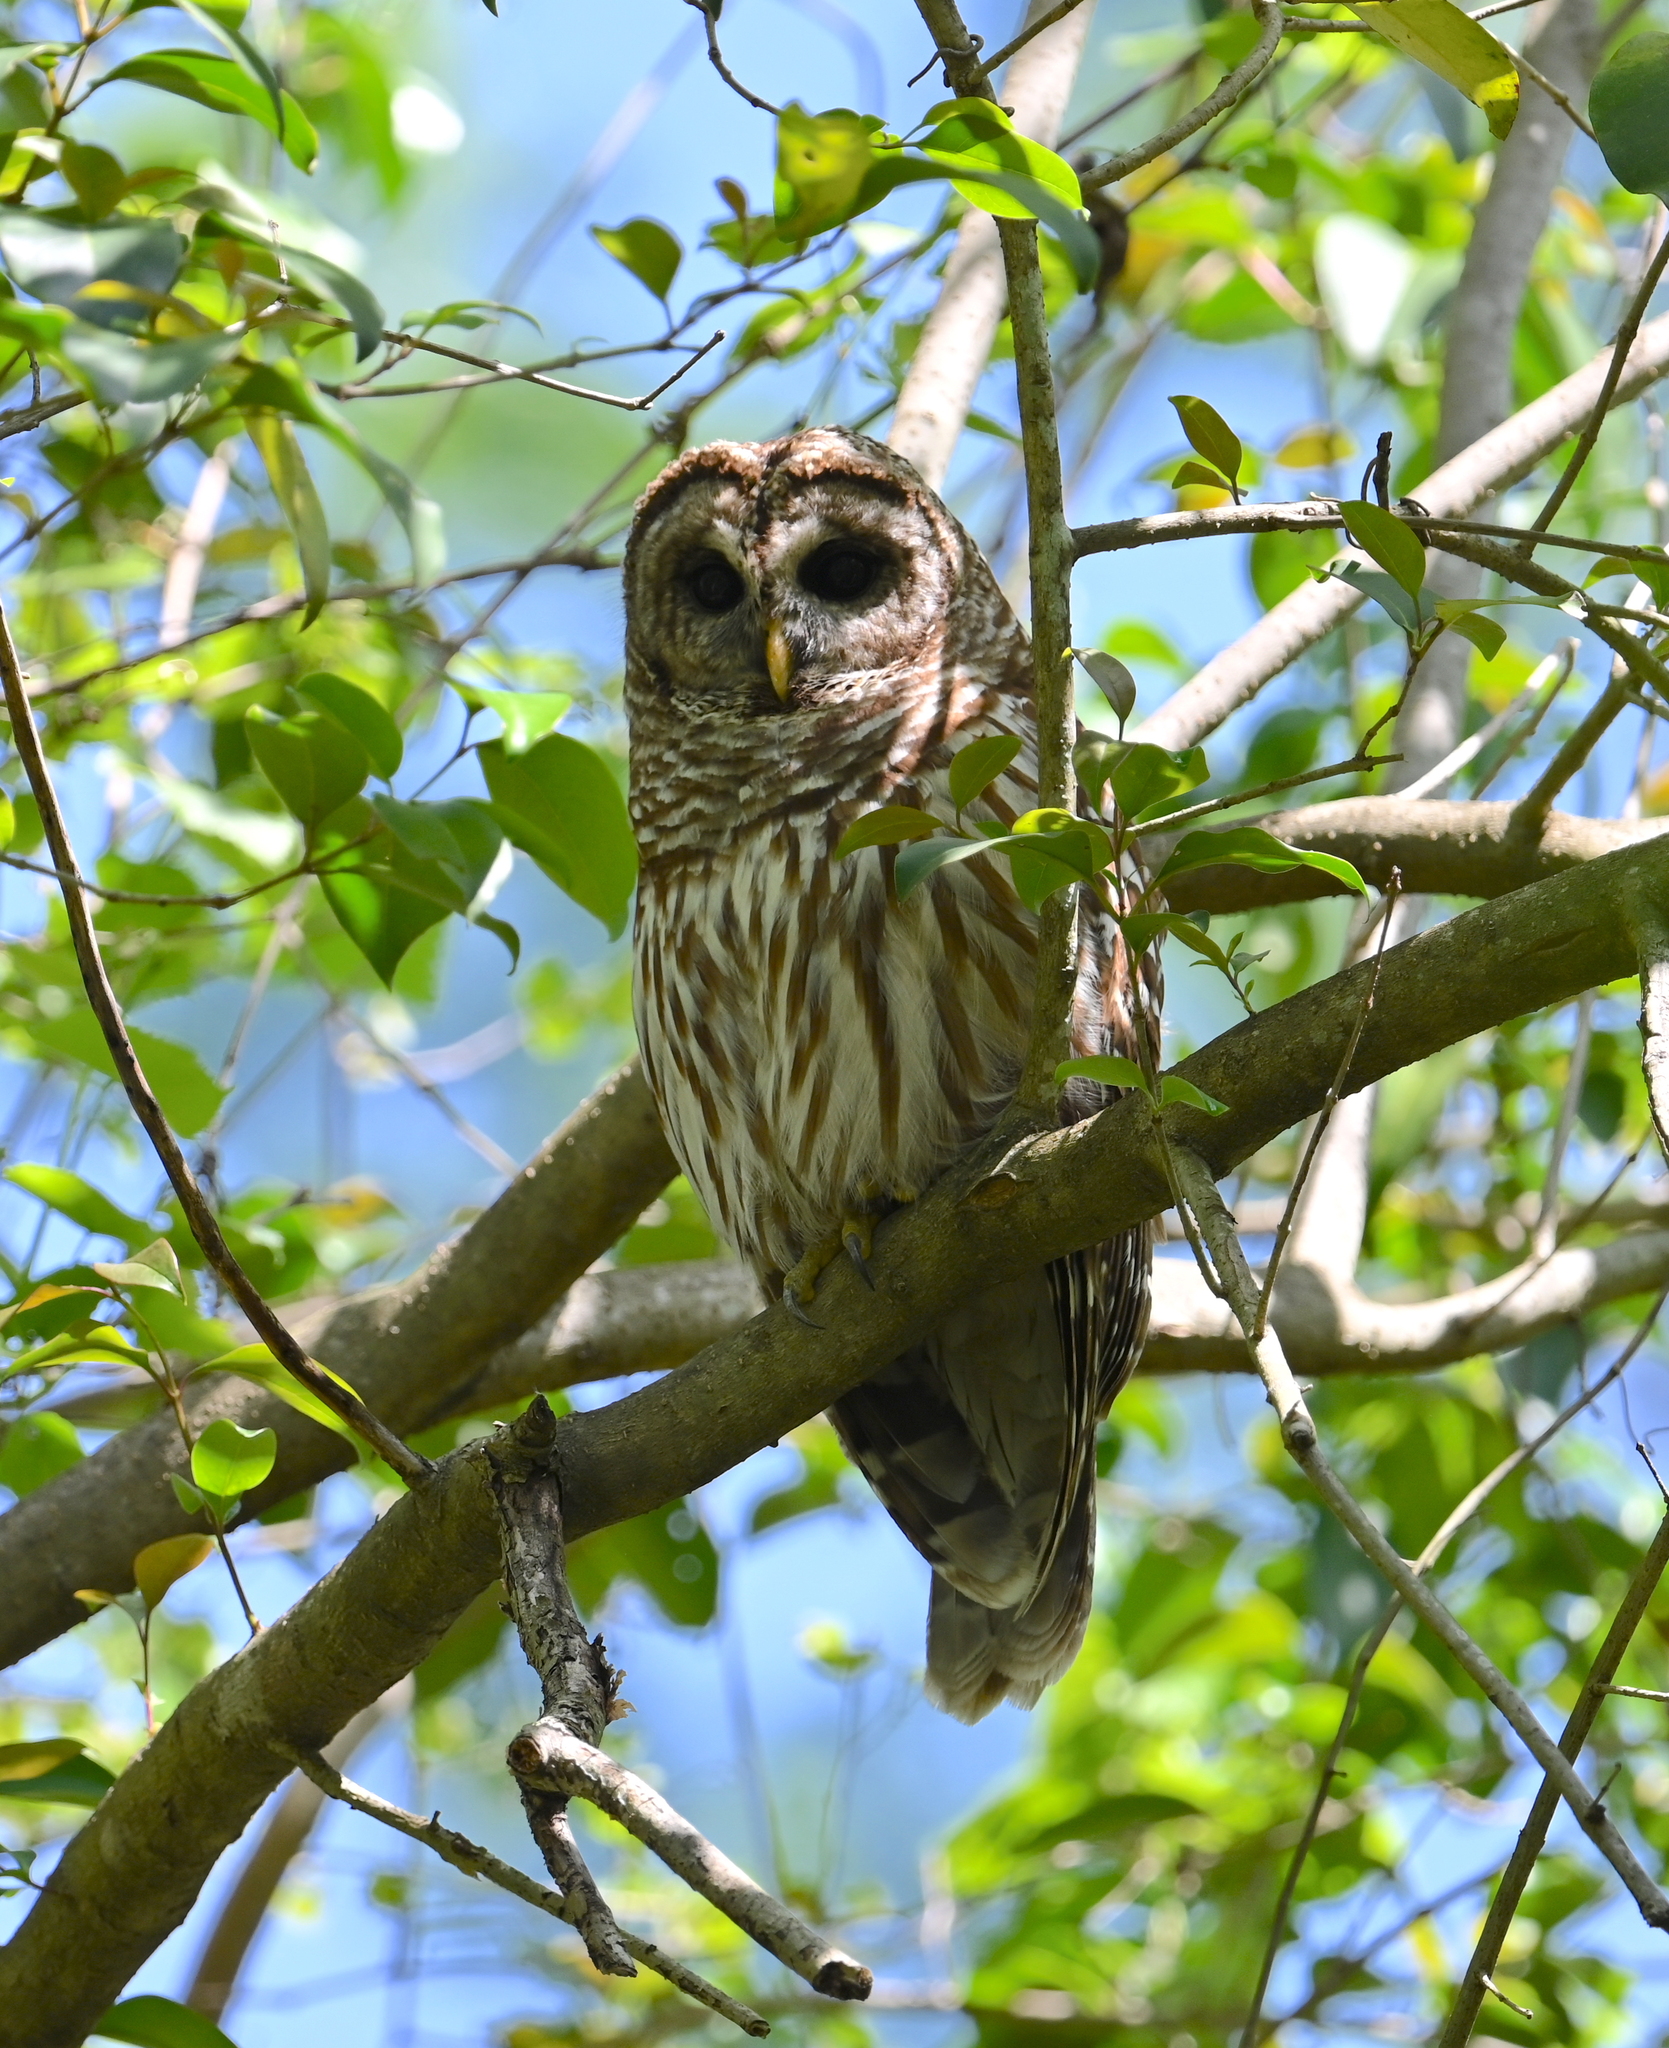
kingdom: Animalia
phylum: Chordata
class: Aves
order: Strigiformes
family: Strigidae
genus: Strix
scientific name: Strix varia
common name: Barred owl
